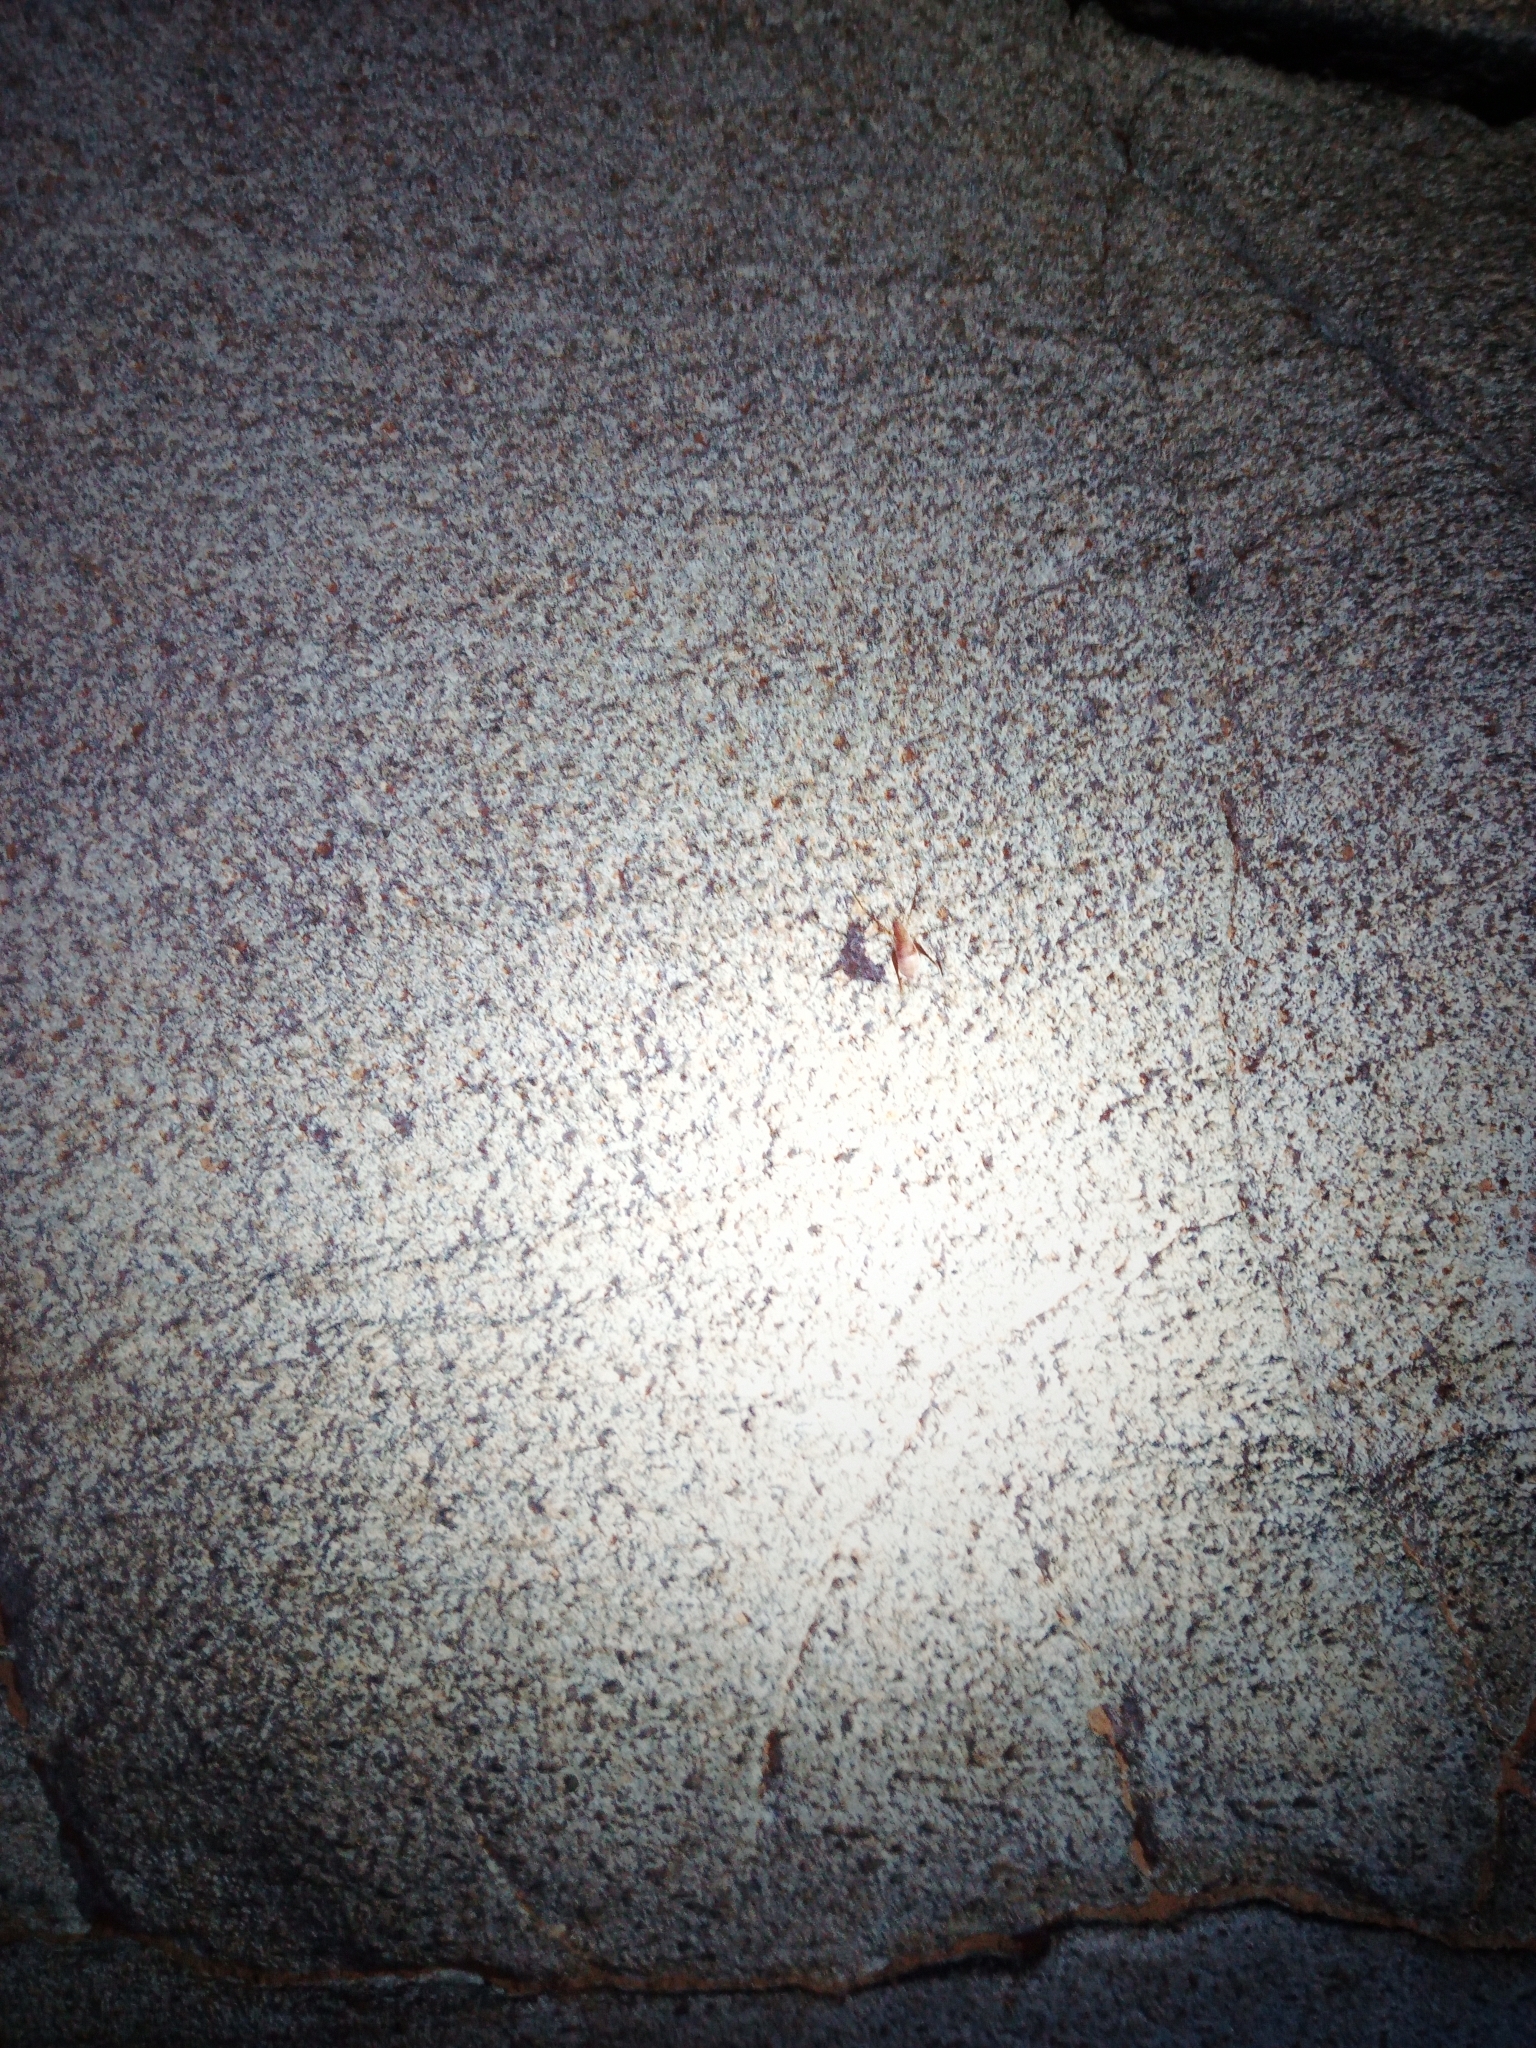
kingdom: Animalia
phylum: Arthropoda
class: Insecta
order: Orthoptera
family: Rhaphidophoridae
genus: Hadenoecus
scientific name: Hadenoecus jonesi
